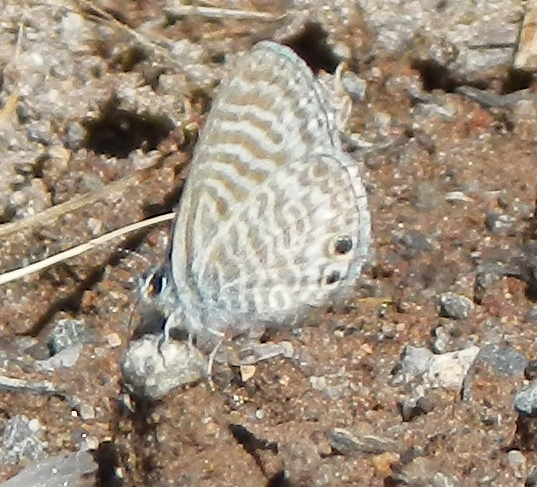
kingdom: Animalia
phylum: Arthropoda
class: Insecta
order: Lepidoptera
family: Lycaenidae
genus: Leptotes
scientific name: Leptotes marina
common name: Marine blue
